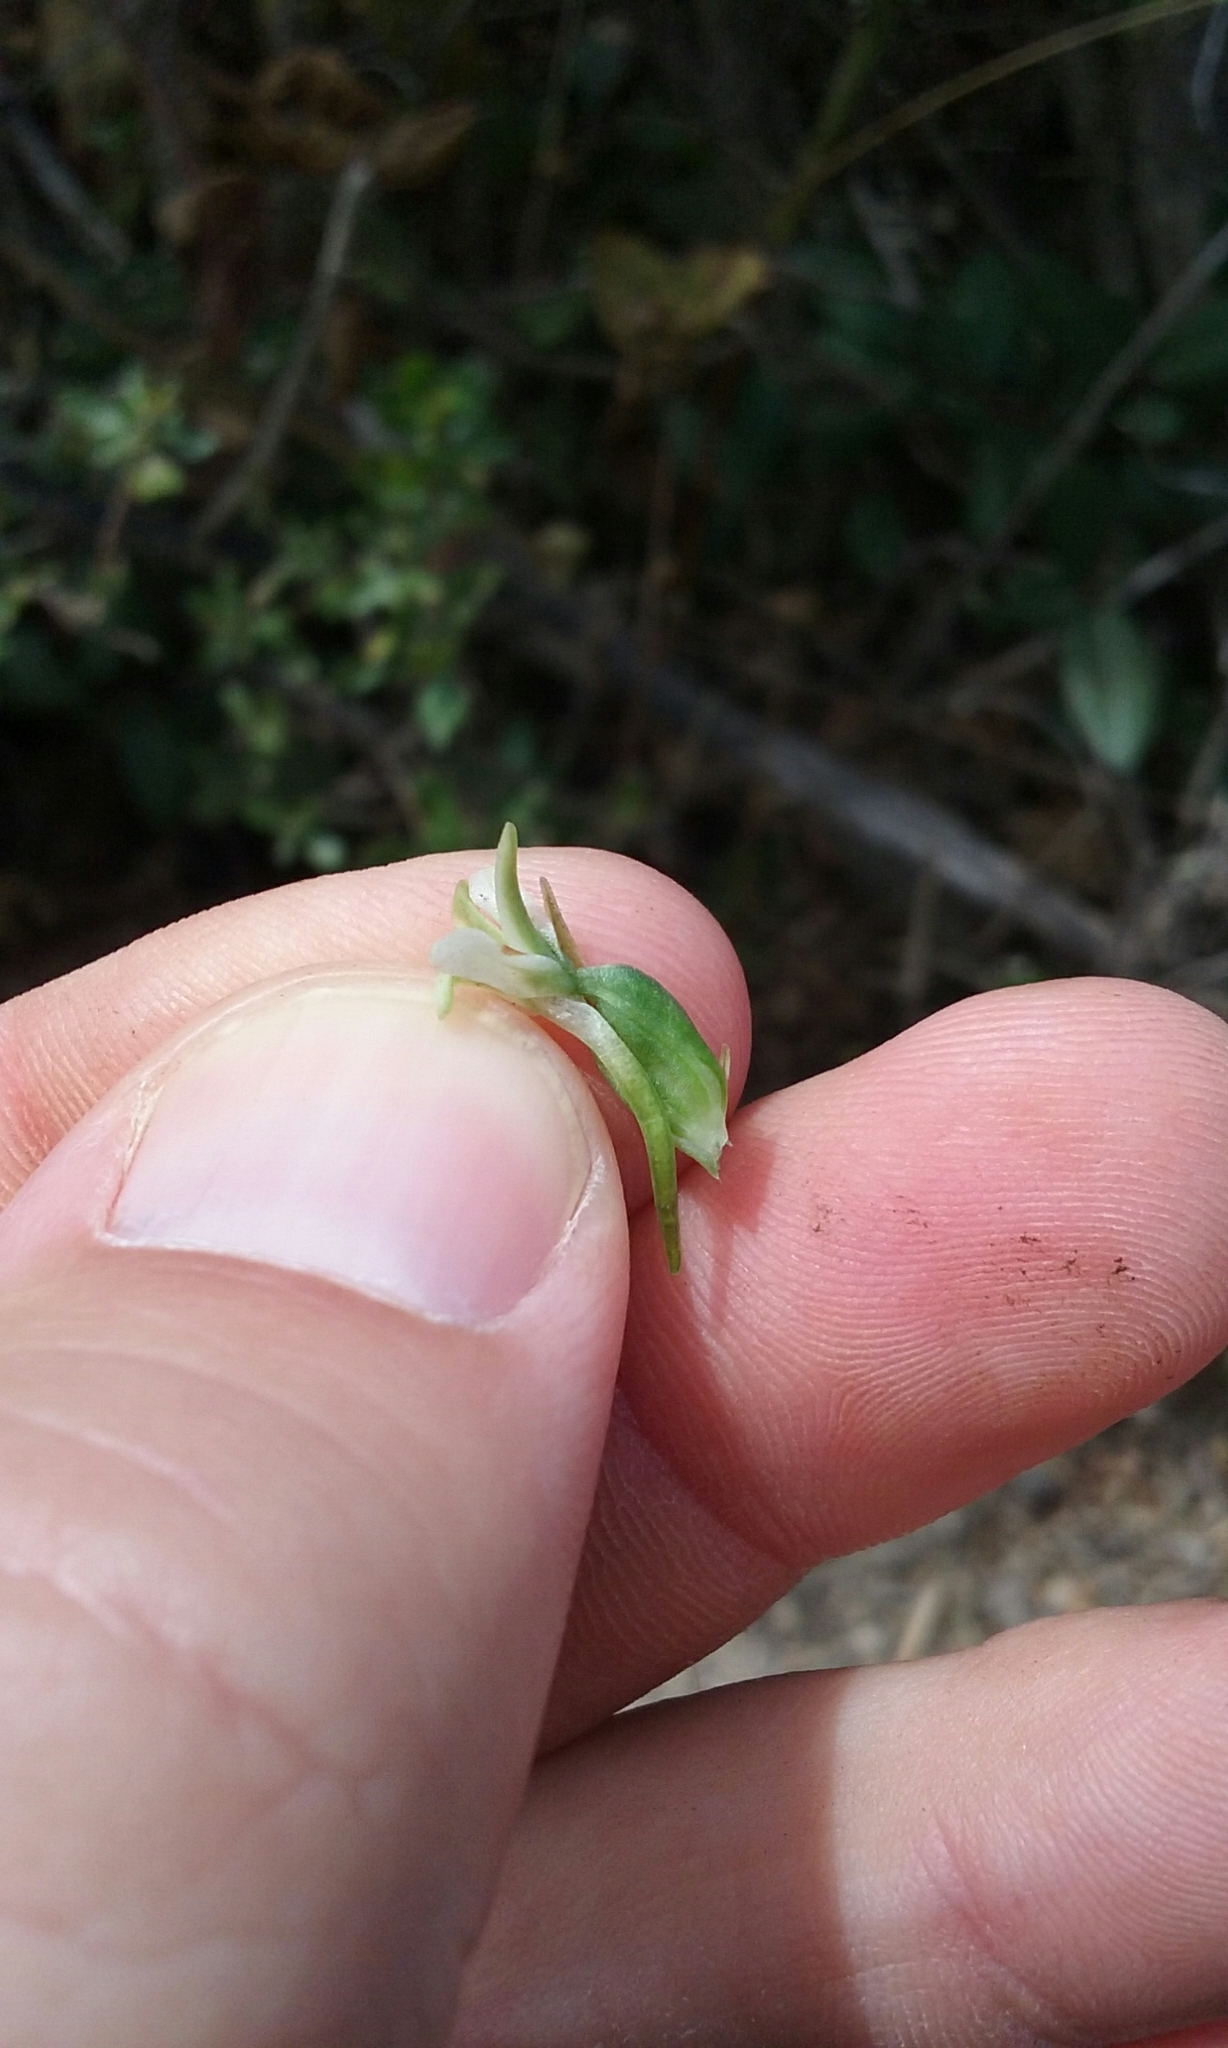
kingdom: Plantae
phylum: Tracheophyta
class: Liliopsida
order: Asparagales
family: Orchidaceae
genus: Platanthera
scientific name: Platanthera elegans
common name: Coast piperia
